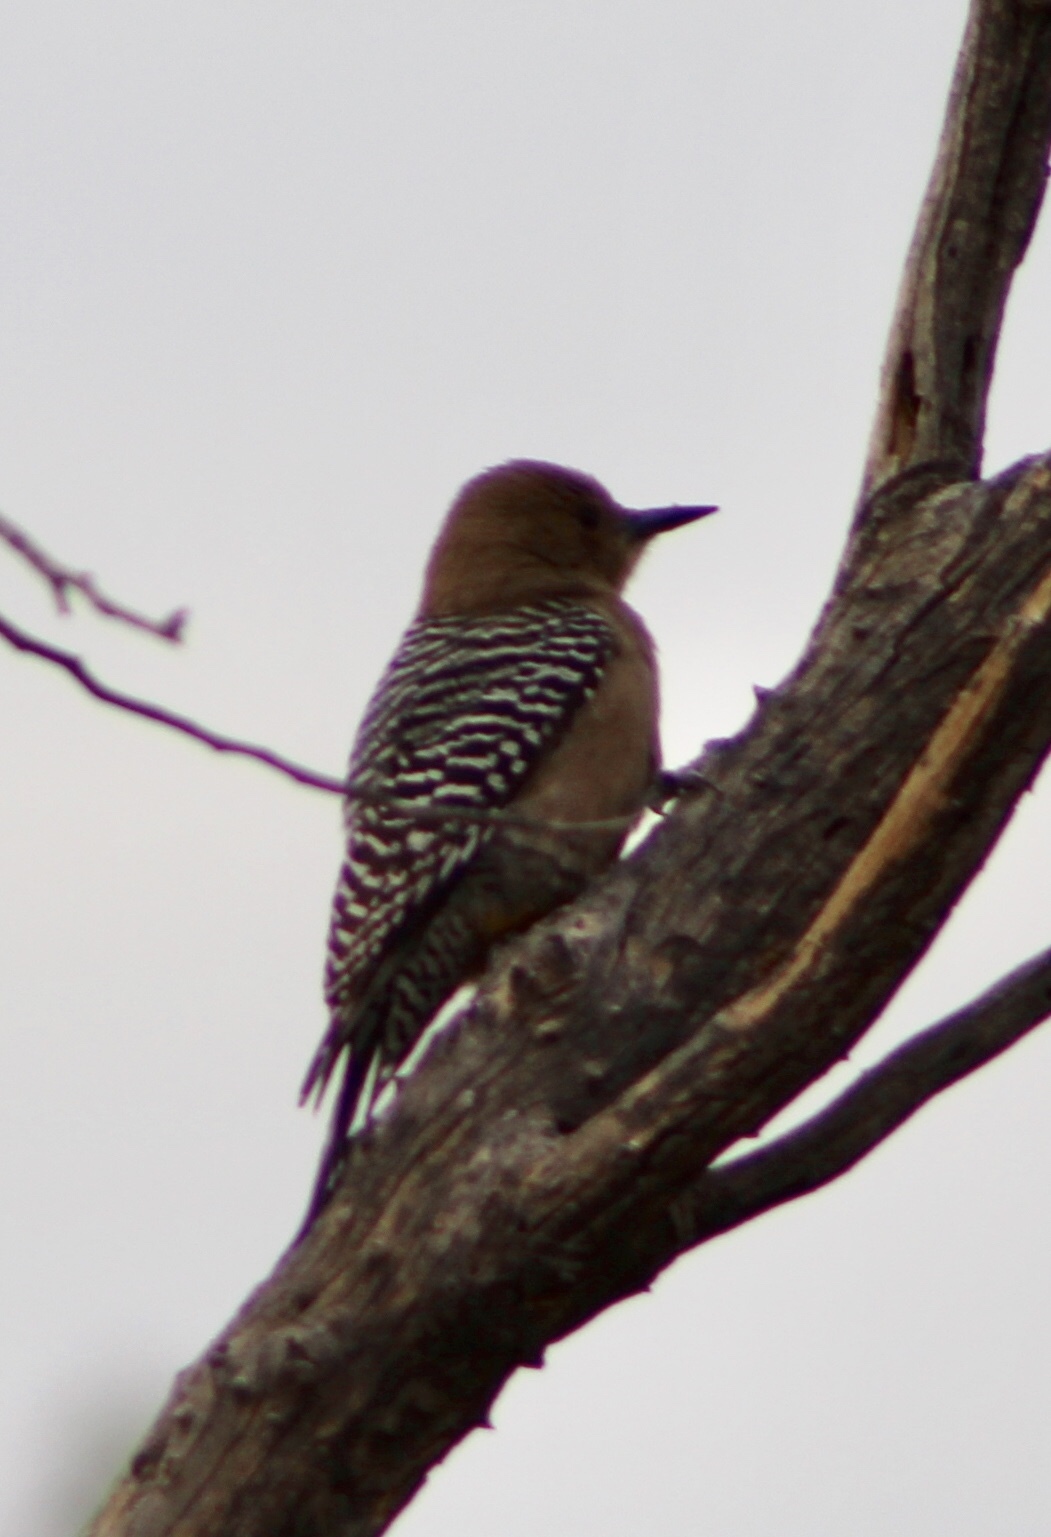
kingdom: Animalia
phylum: Chordata
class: Aves
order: Piciformes
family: Picidae
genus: Melanerpes
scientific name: Melanerpes uropygialis
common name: Gila woodpecker
